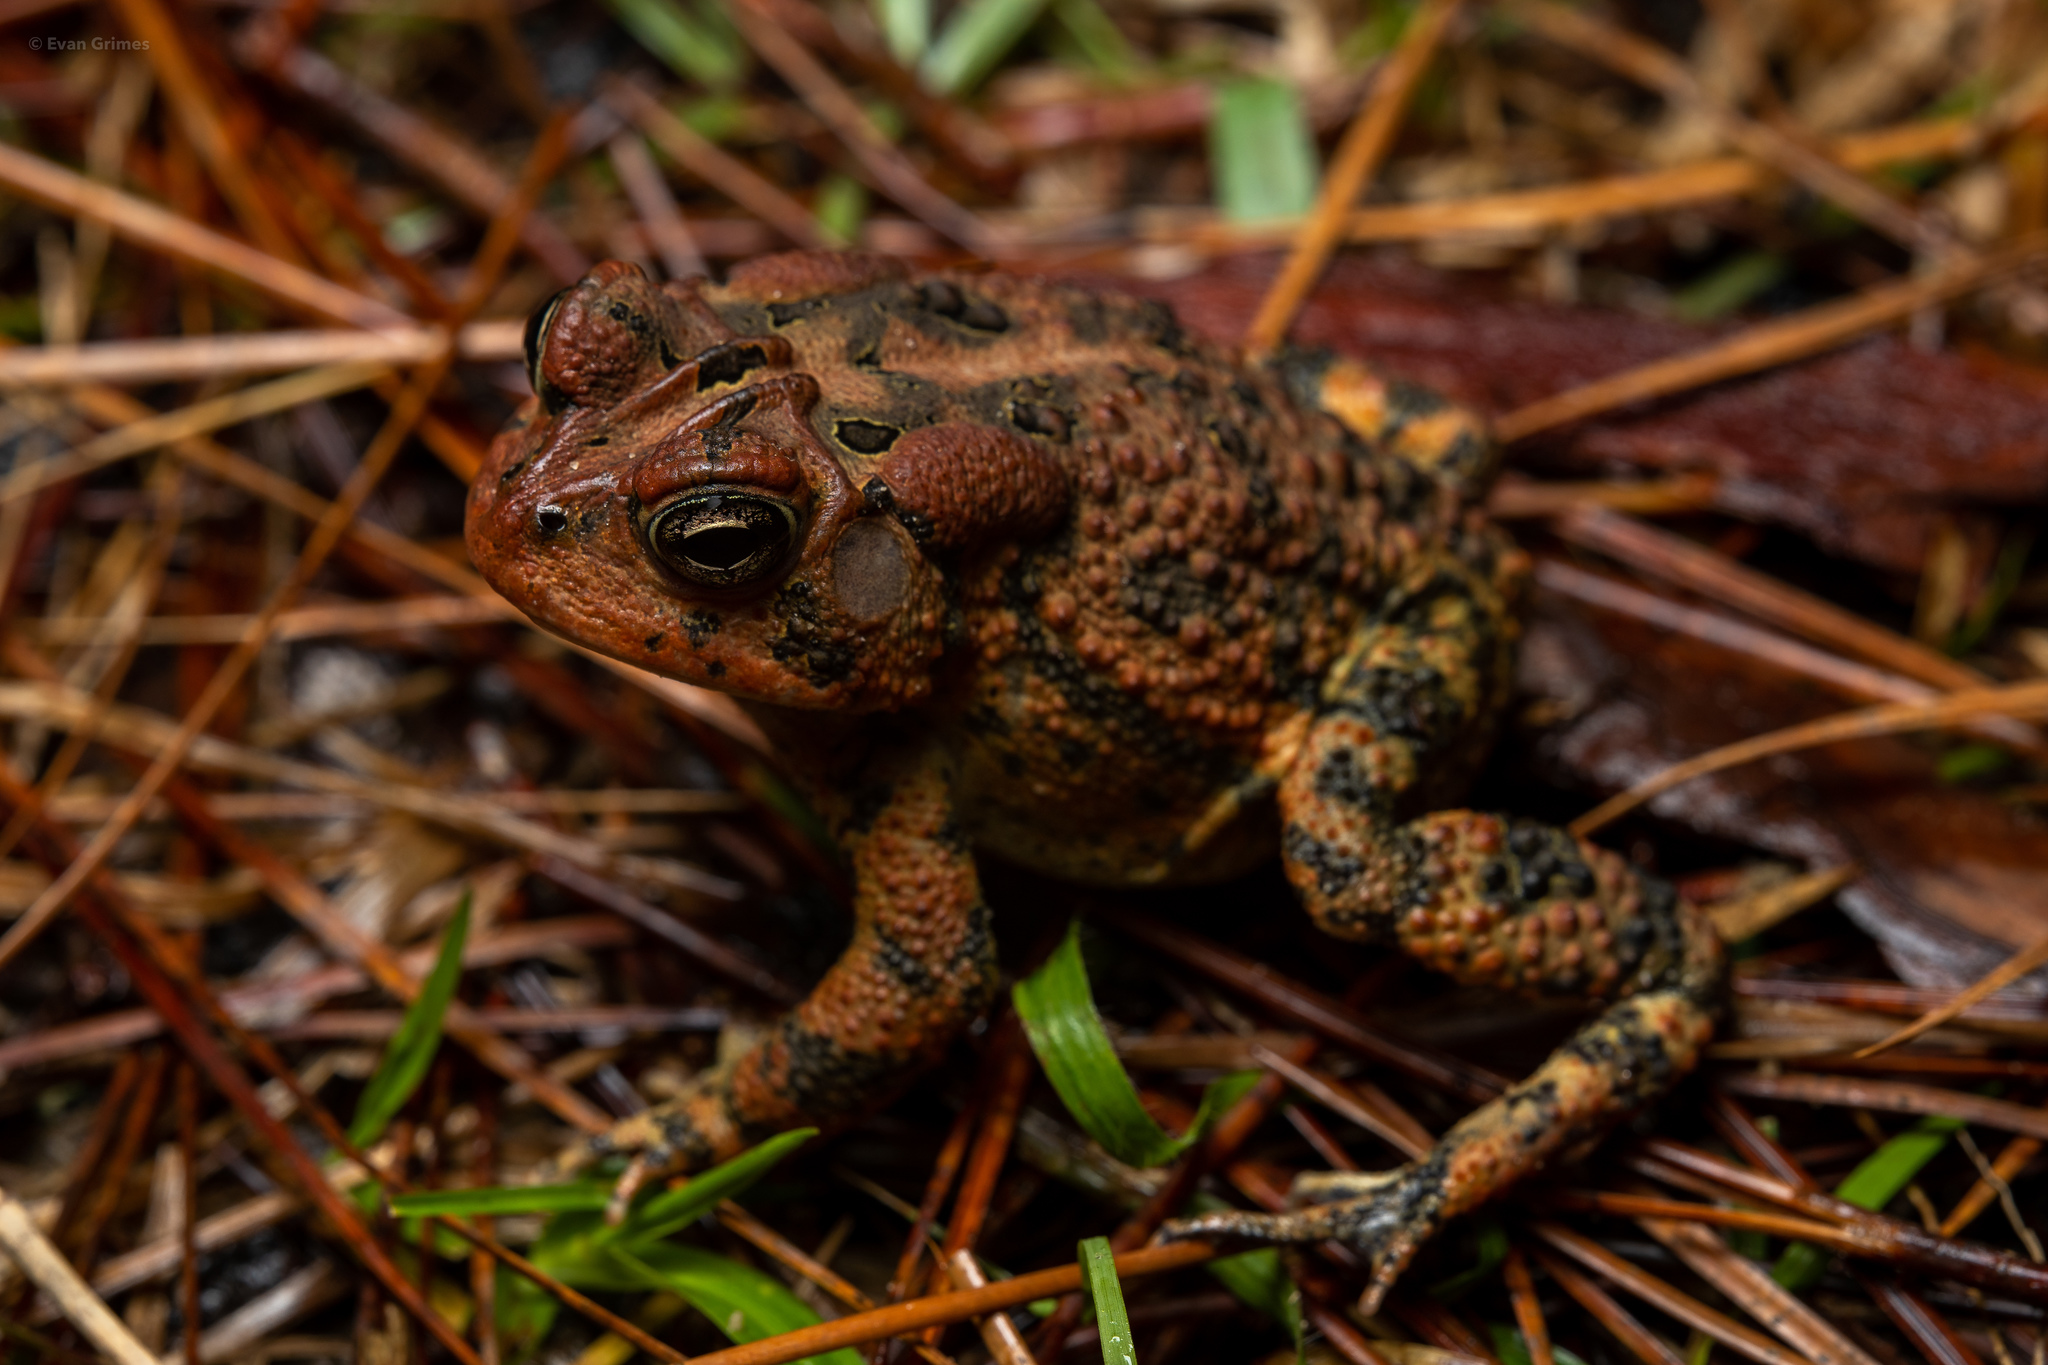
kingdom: Animalia
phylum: Chordata
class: Amphibia
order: Anura
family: Bufonidae
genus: Anaxyrus
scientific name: Anaxyrus terrestris
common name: Southern toad
